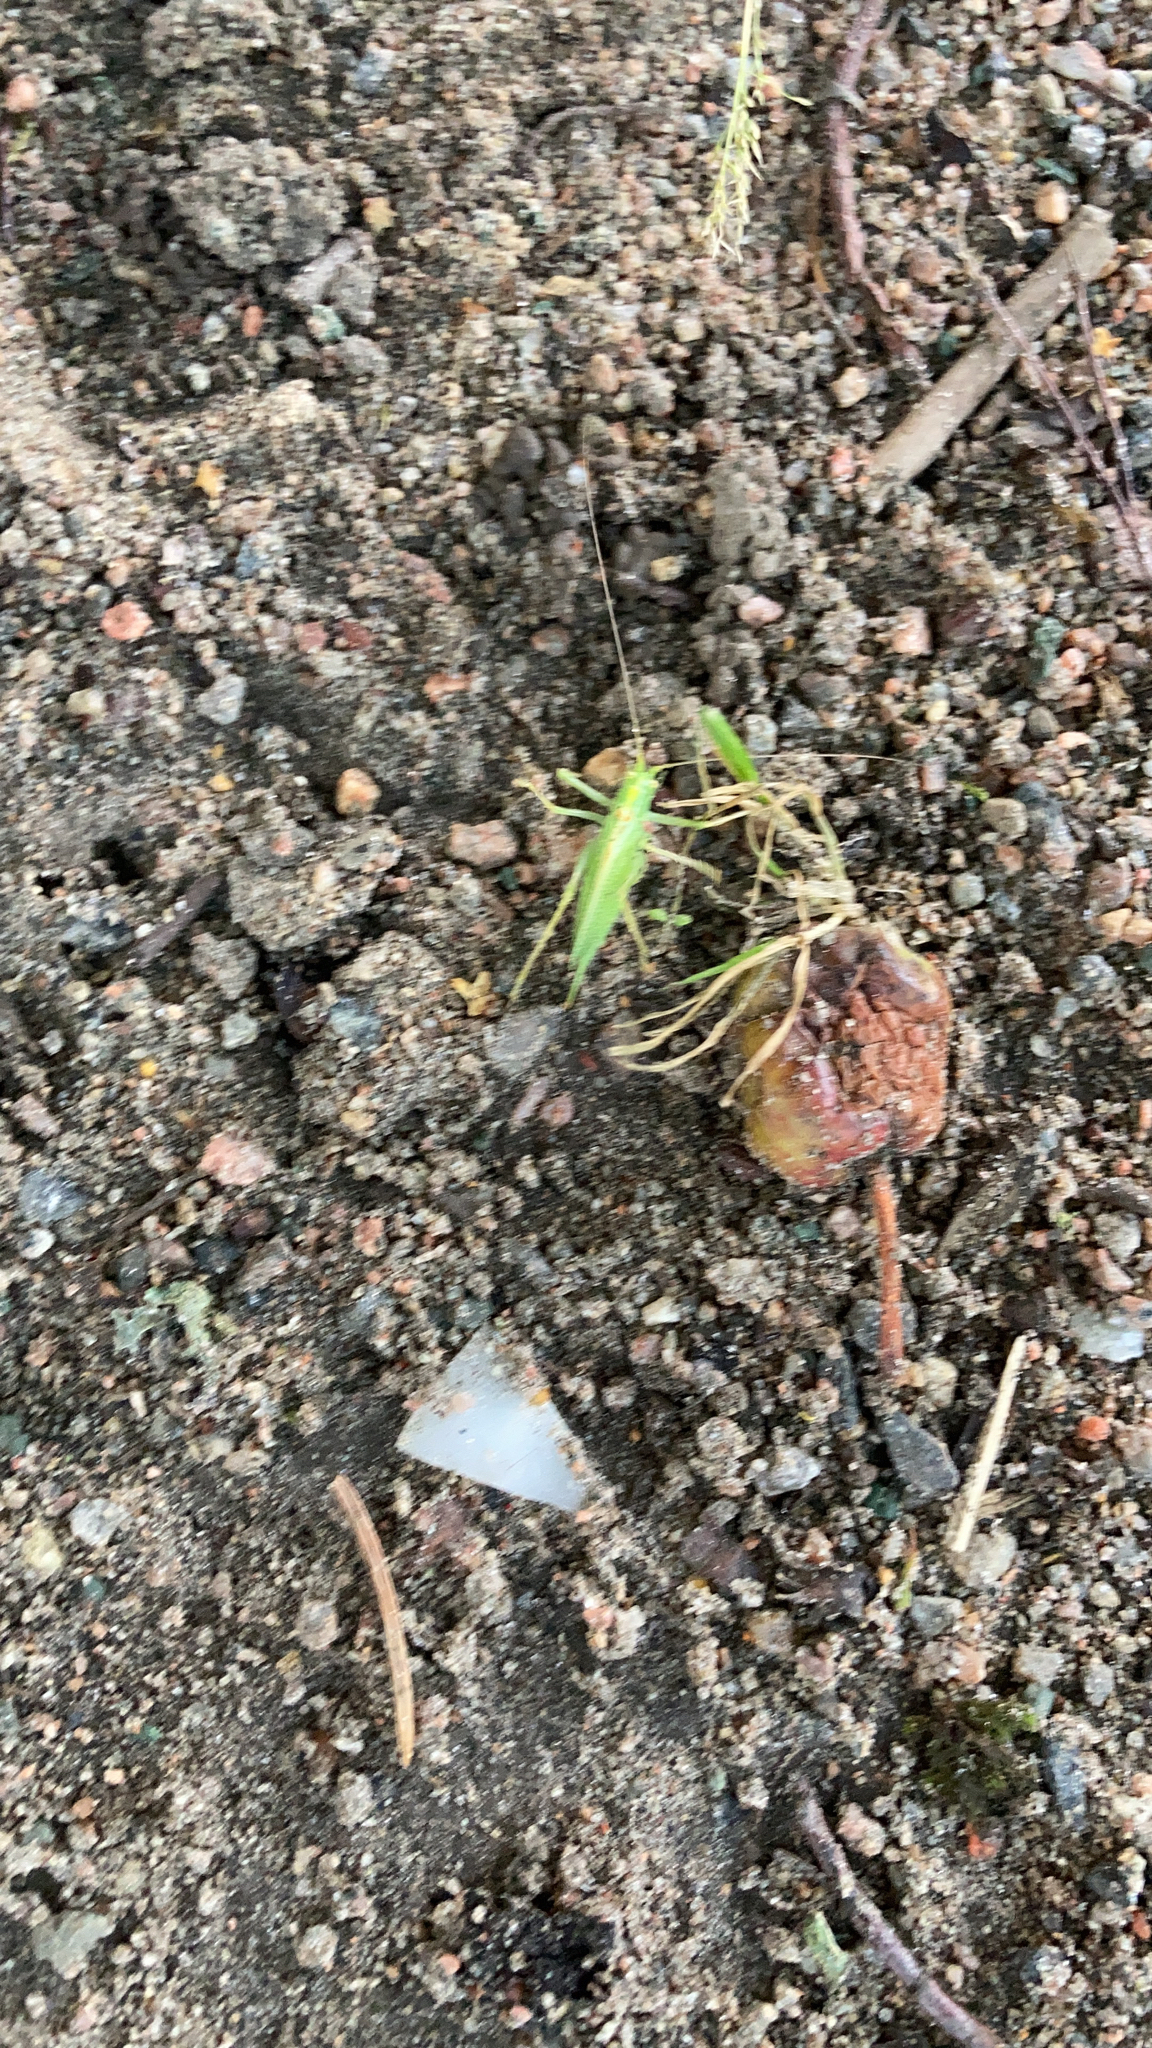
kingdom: Animalia
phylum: Arthropoda
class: Insecta
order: Orthoptera
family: Tettigoniidae
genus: Meconema
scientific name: Meconema thalassinum
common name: Oak bush-cricket
